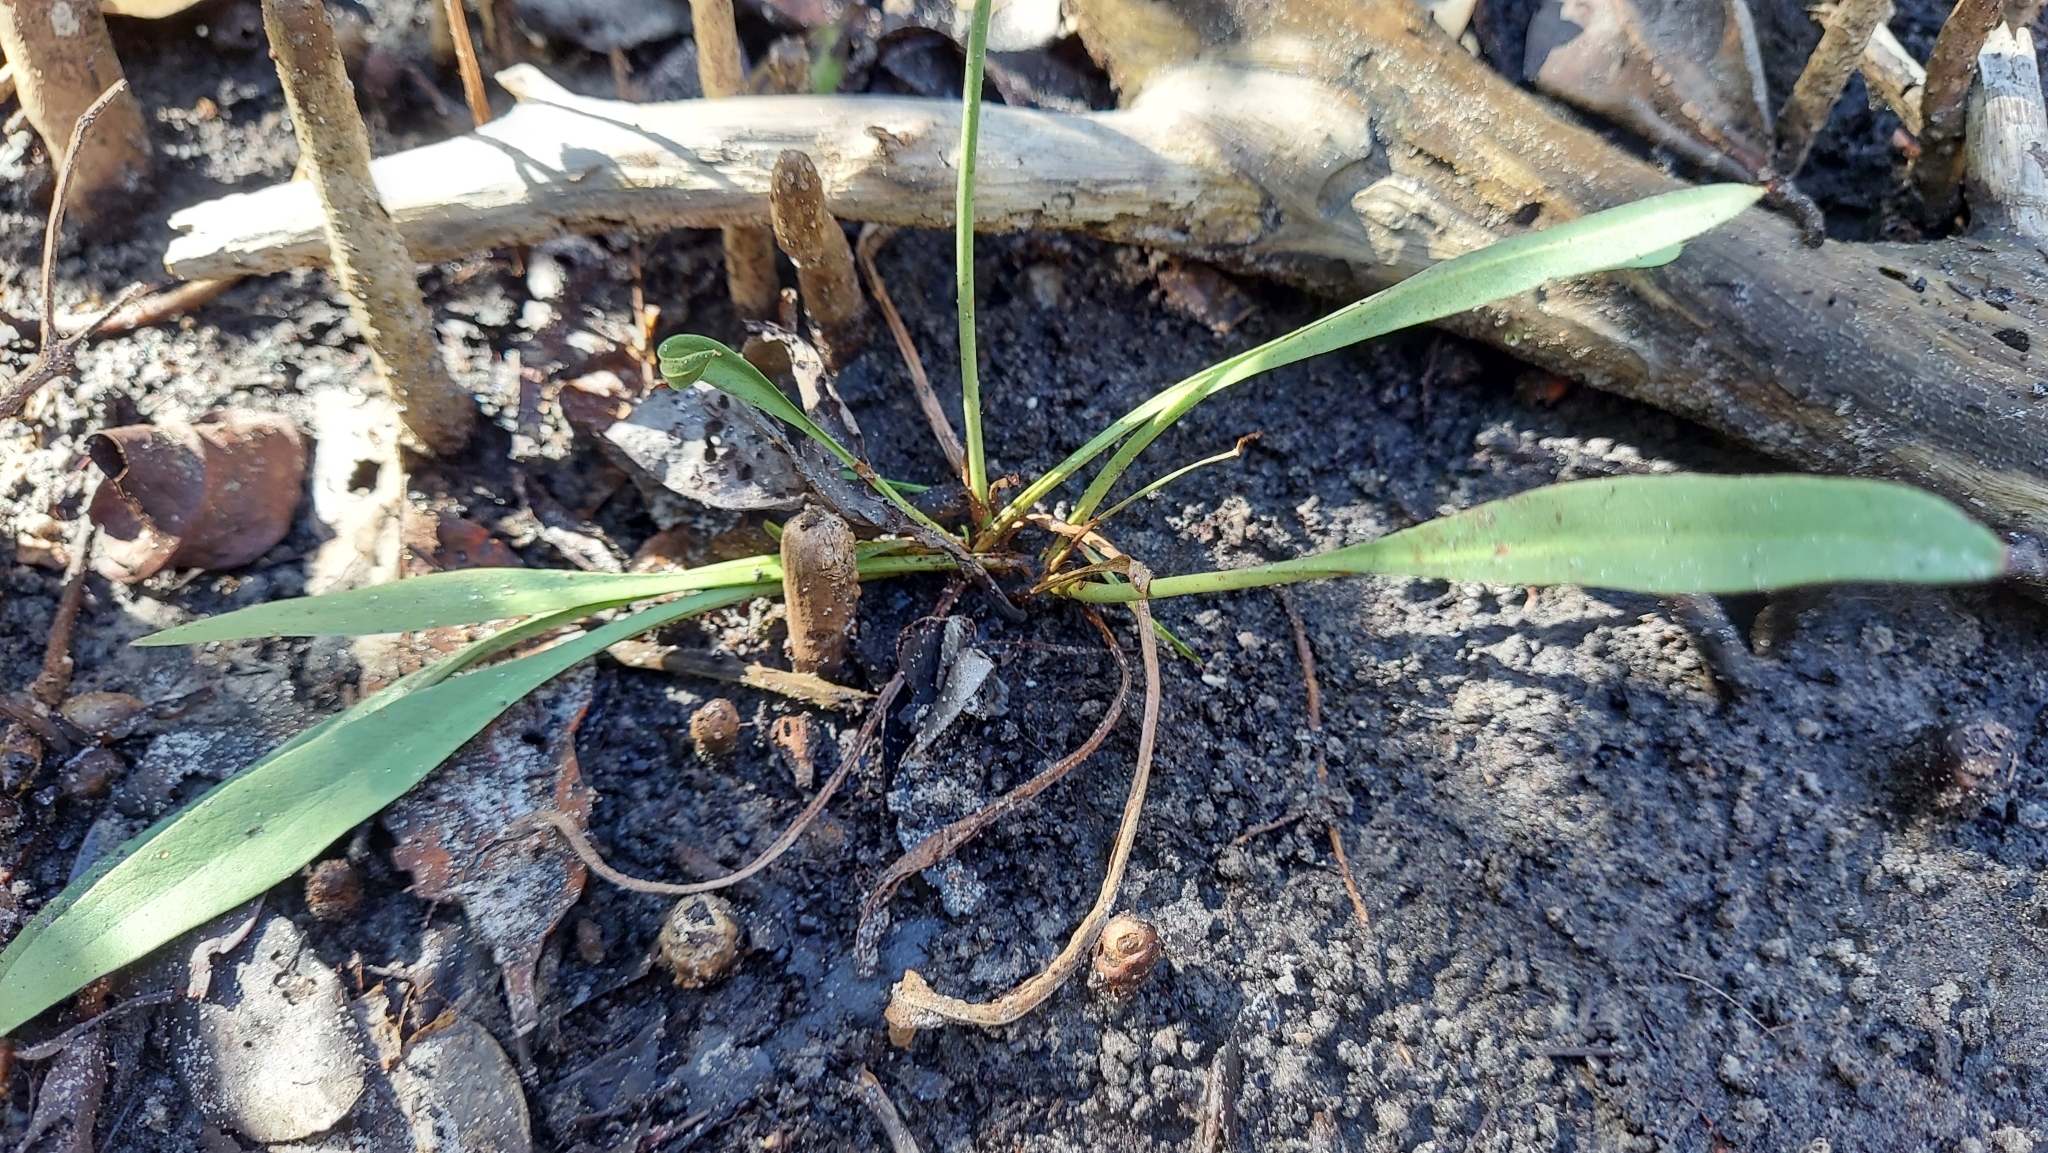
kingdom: Plantae
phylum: Tracheophyta
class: Magnoliopsida
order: Caryophyllales
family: Plumbaginaceae
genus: Limonium
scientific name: Limonium carolinianum
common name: Carolina sea lavender
